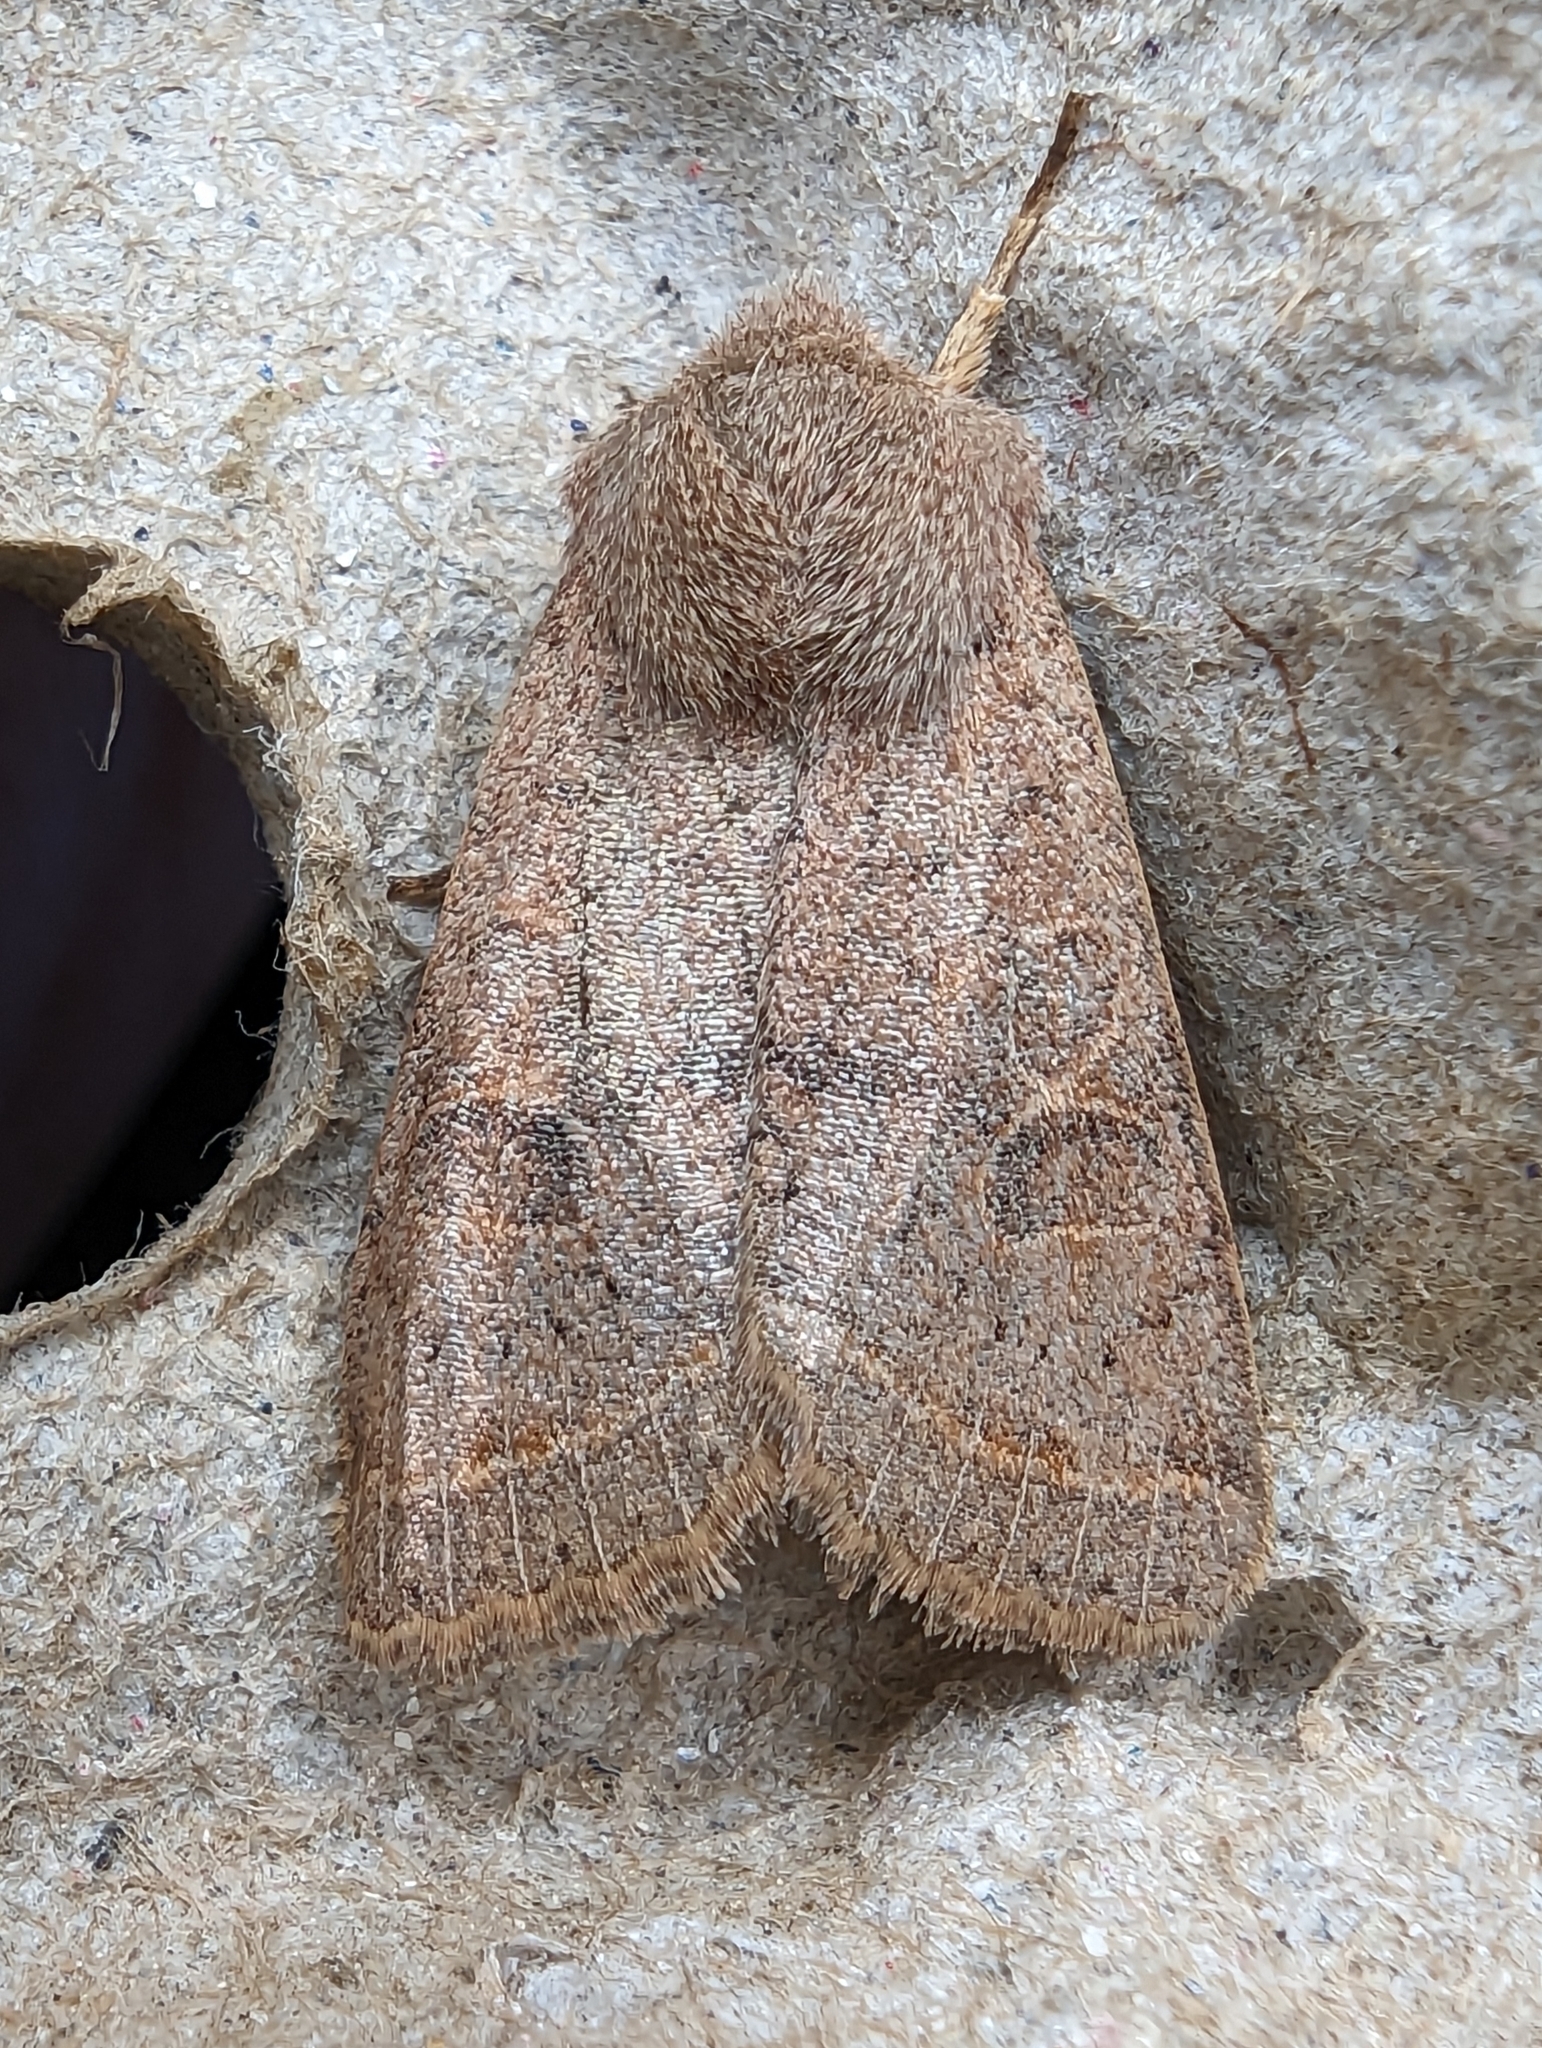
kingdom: Animalia
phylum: Arthropoda
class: Insecta
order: Lepidoptera
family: Noctuidae
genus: Orthosia
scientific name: Orthosia cerasi
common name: Common quaker
